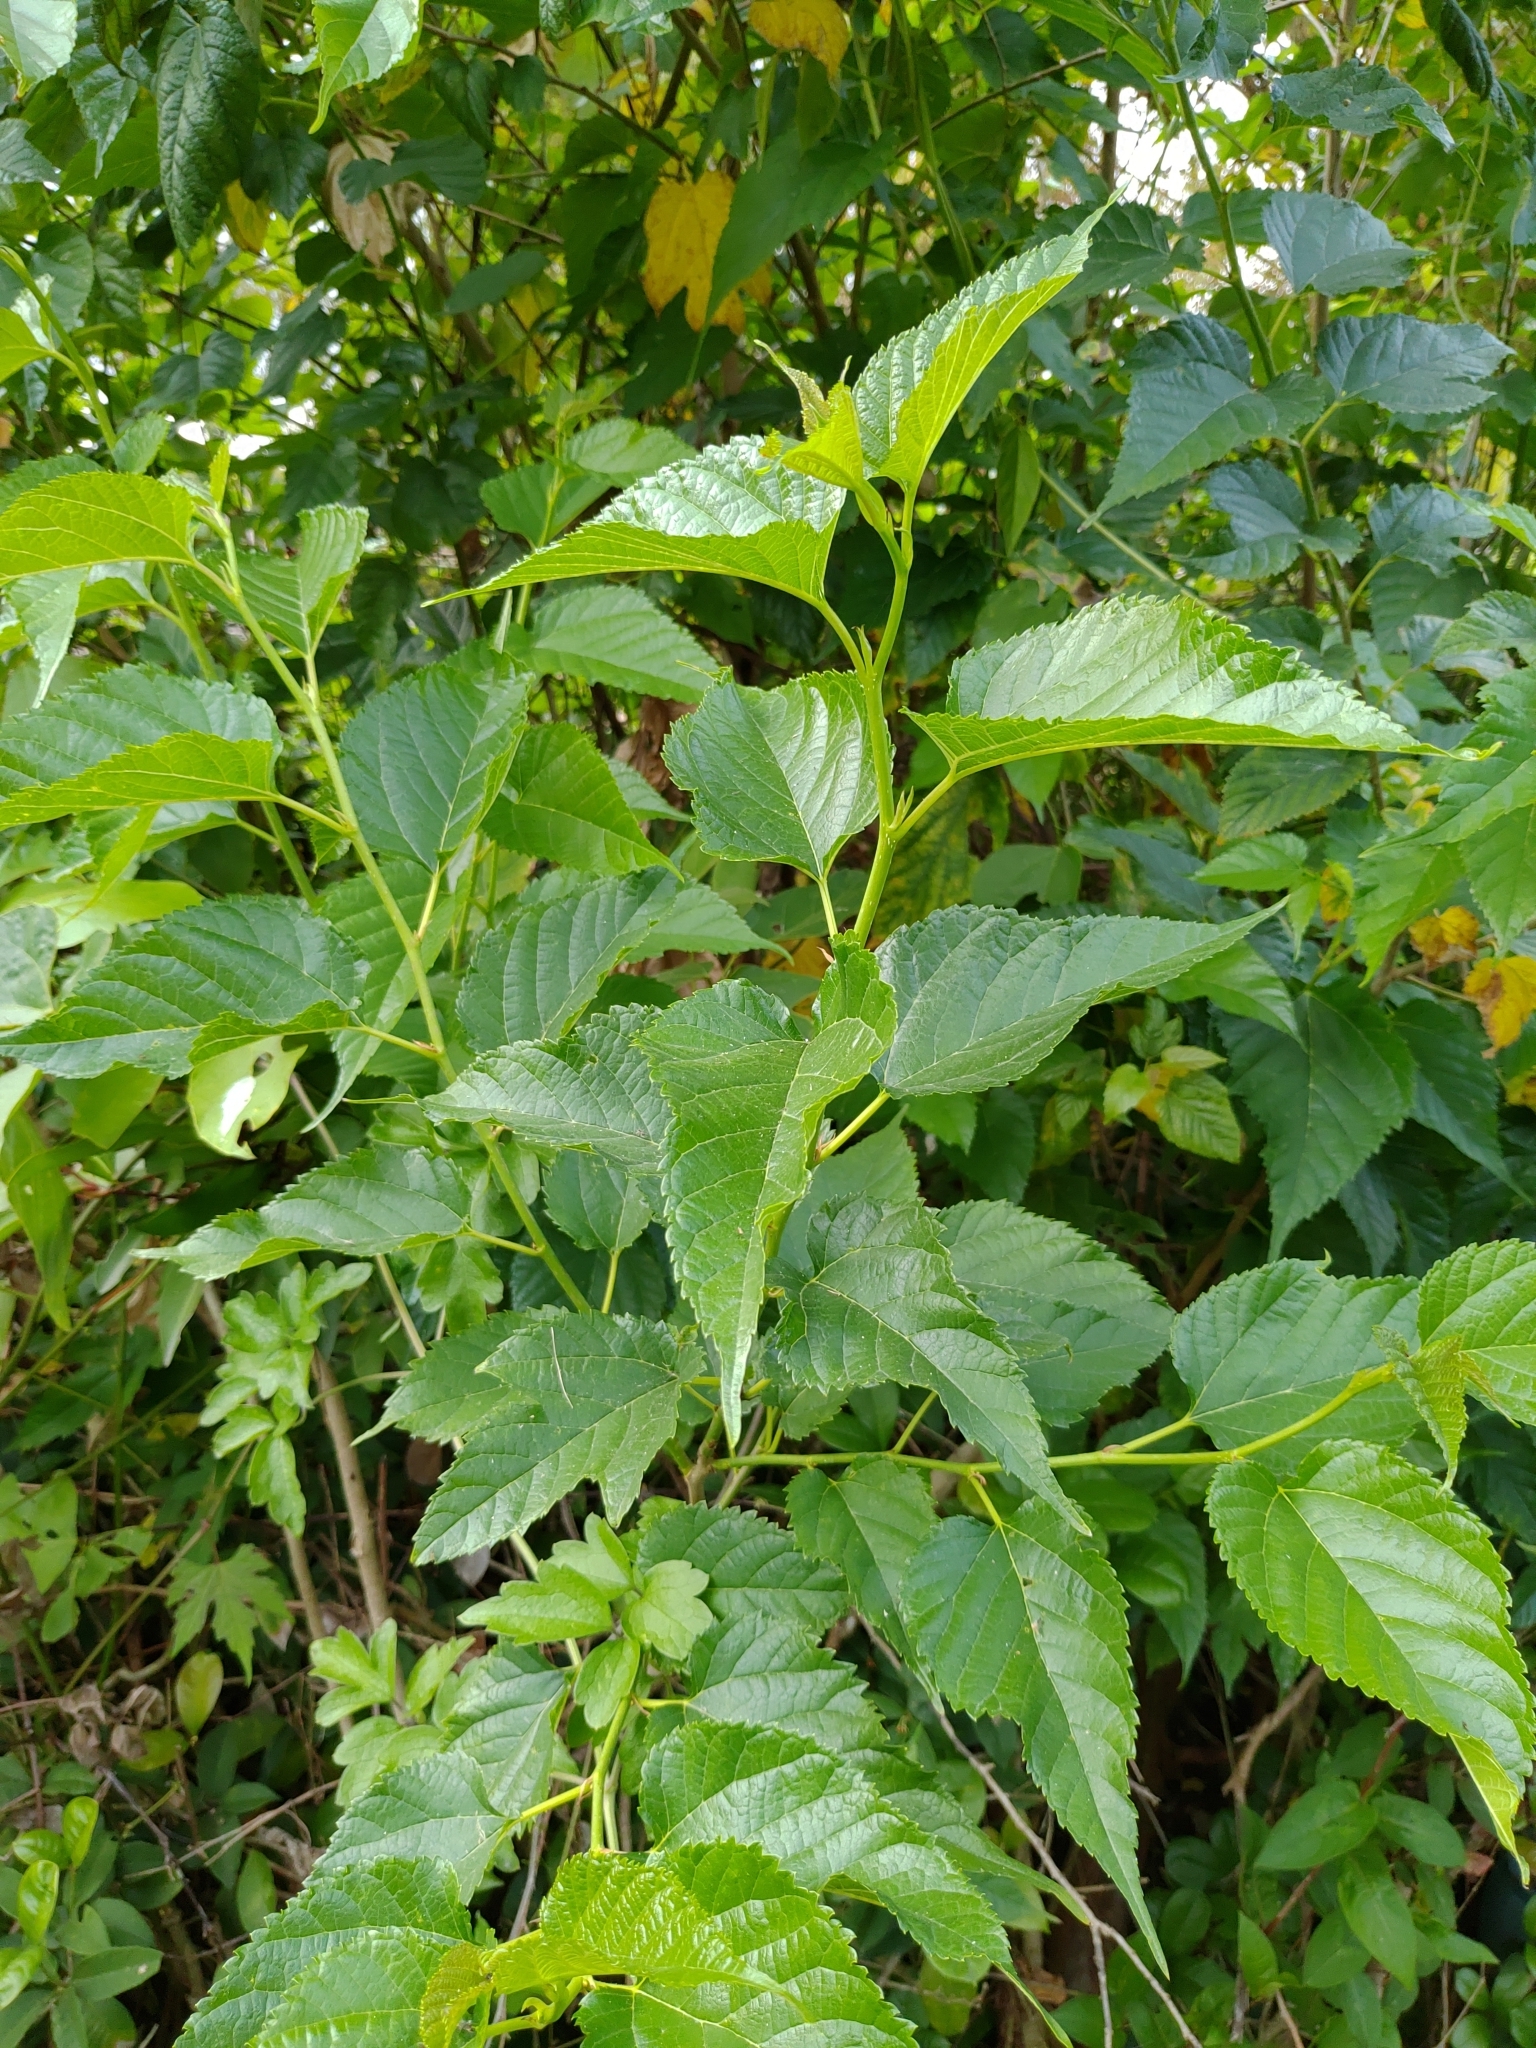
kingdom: Plantae
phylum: Tracheophyta
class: Magnoliopsida
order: Rosales
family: Moraceae
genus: Morus
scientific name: Morus indica
